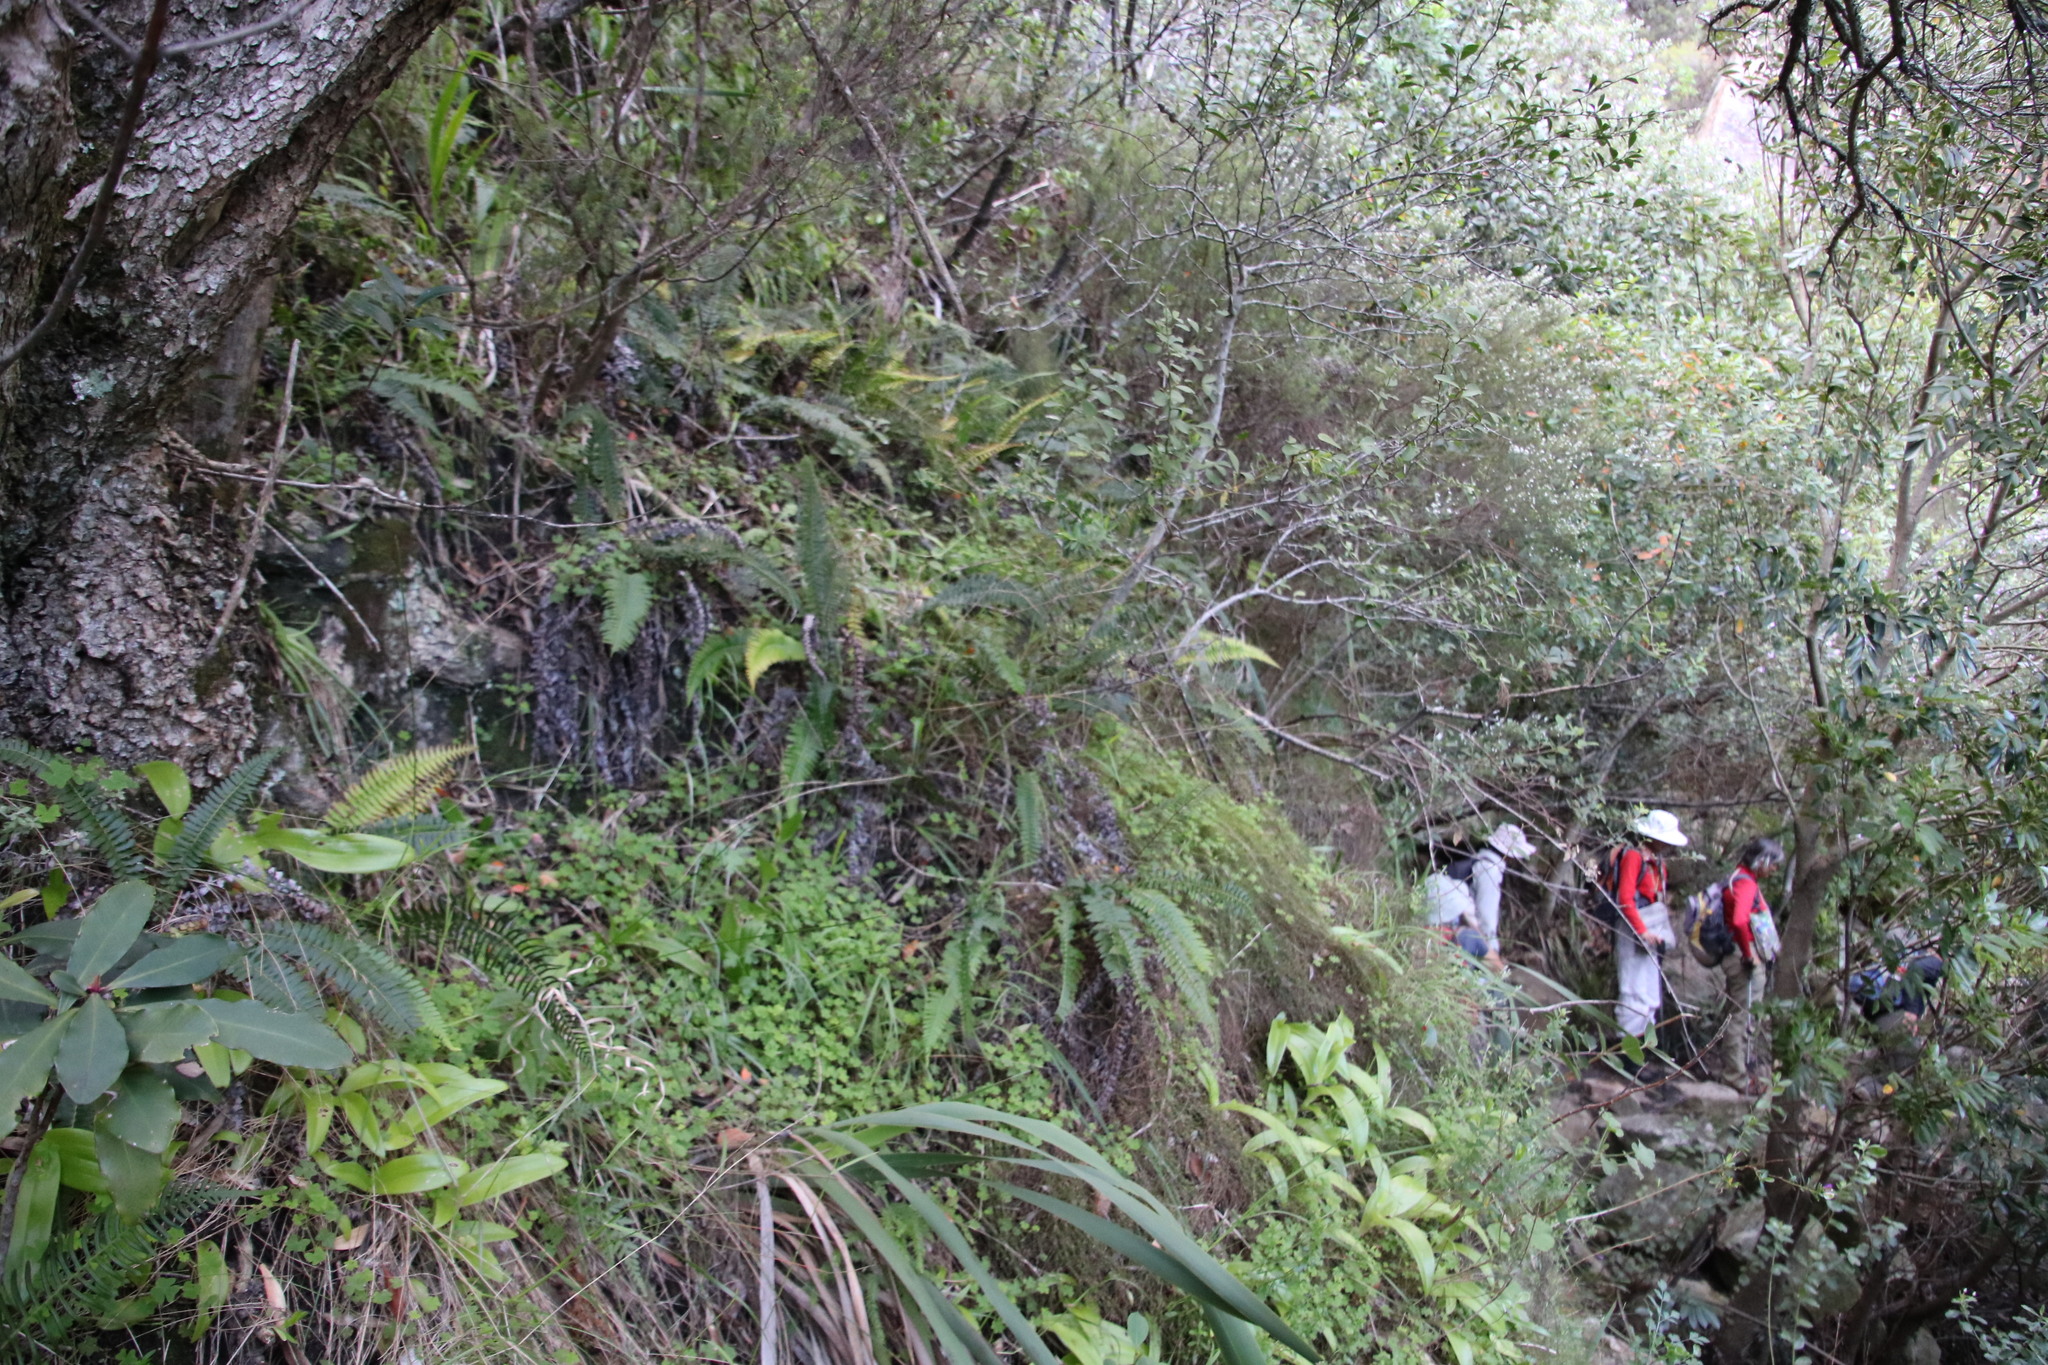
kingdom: Plantae
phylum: Tracheophyta
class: Polypodiopsida
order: Polypodiales
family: Blechnaceae
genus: Blechnum
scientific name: Blechnum punctulatum
